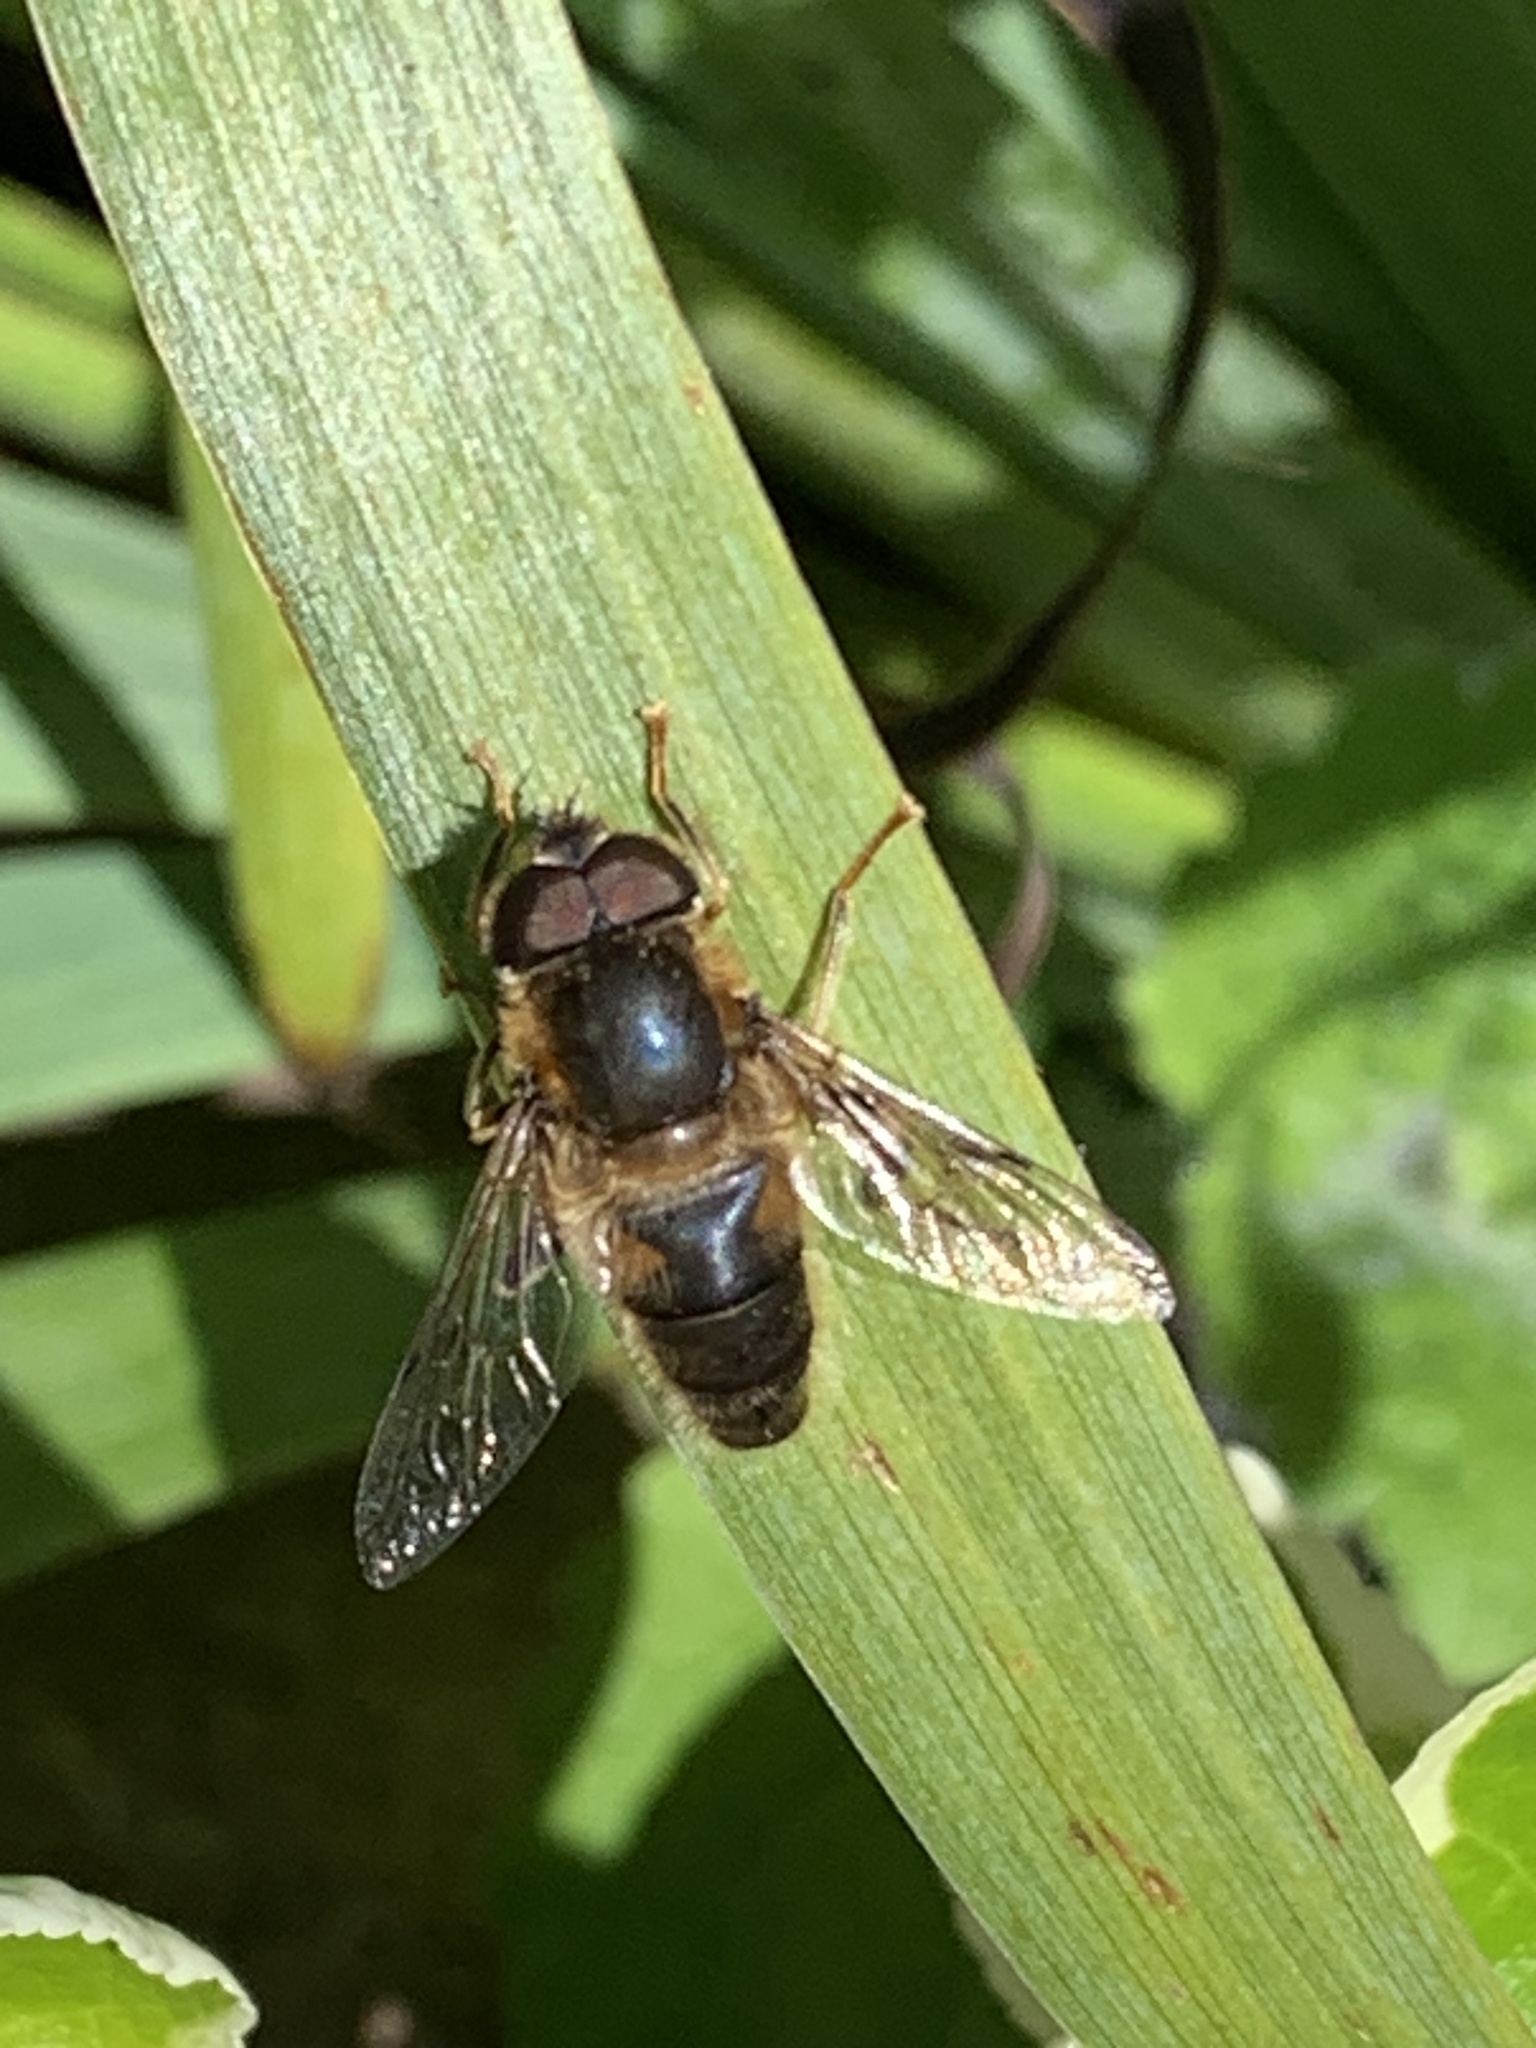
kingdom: Animalia
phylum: Arthropoda
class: Insecta
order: Diptera
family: Syrphidae
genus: Eristalis
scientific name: Eristalis pertinax
